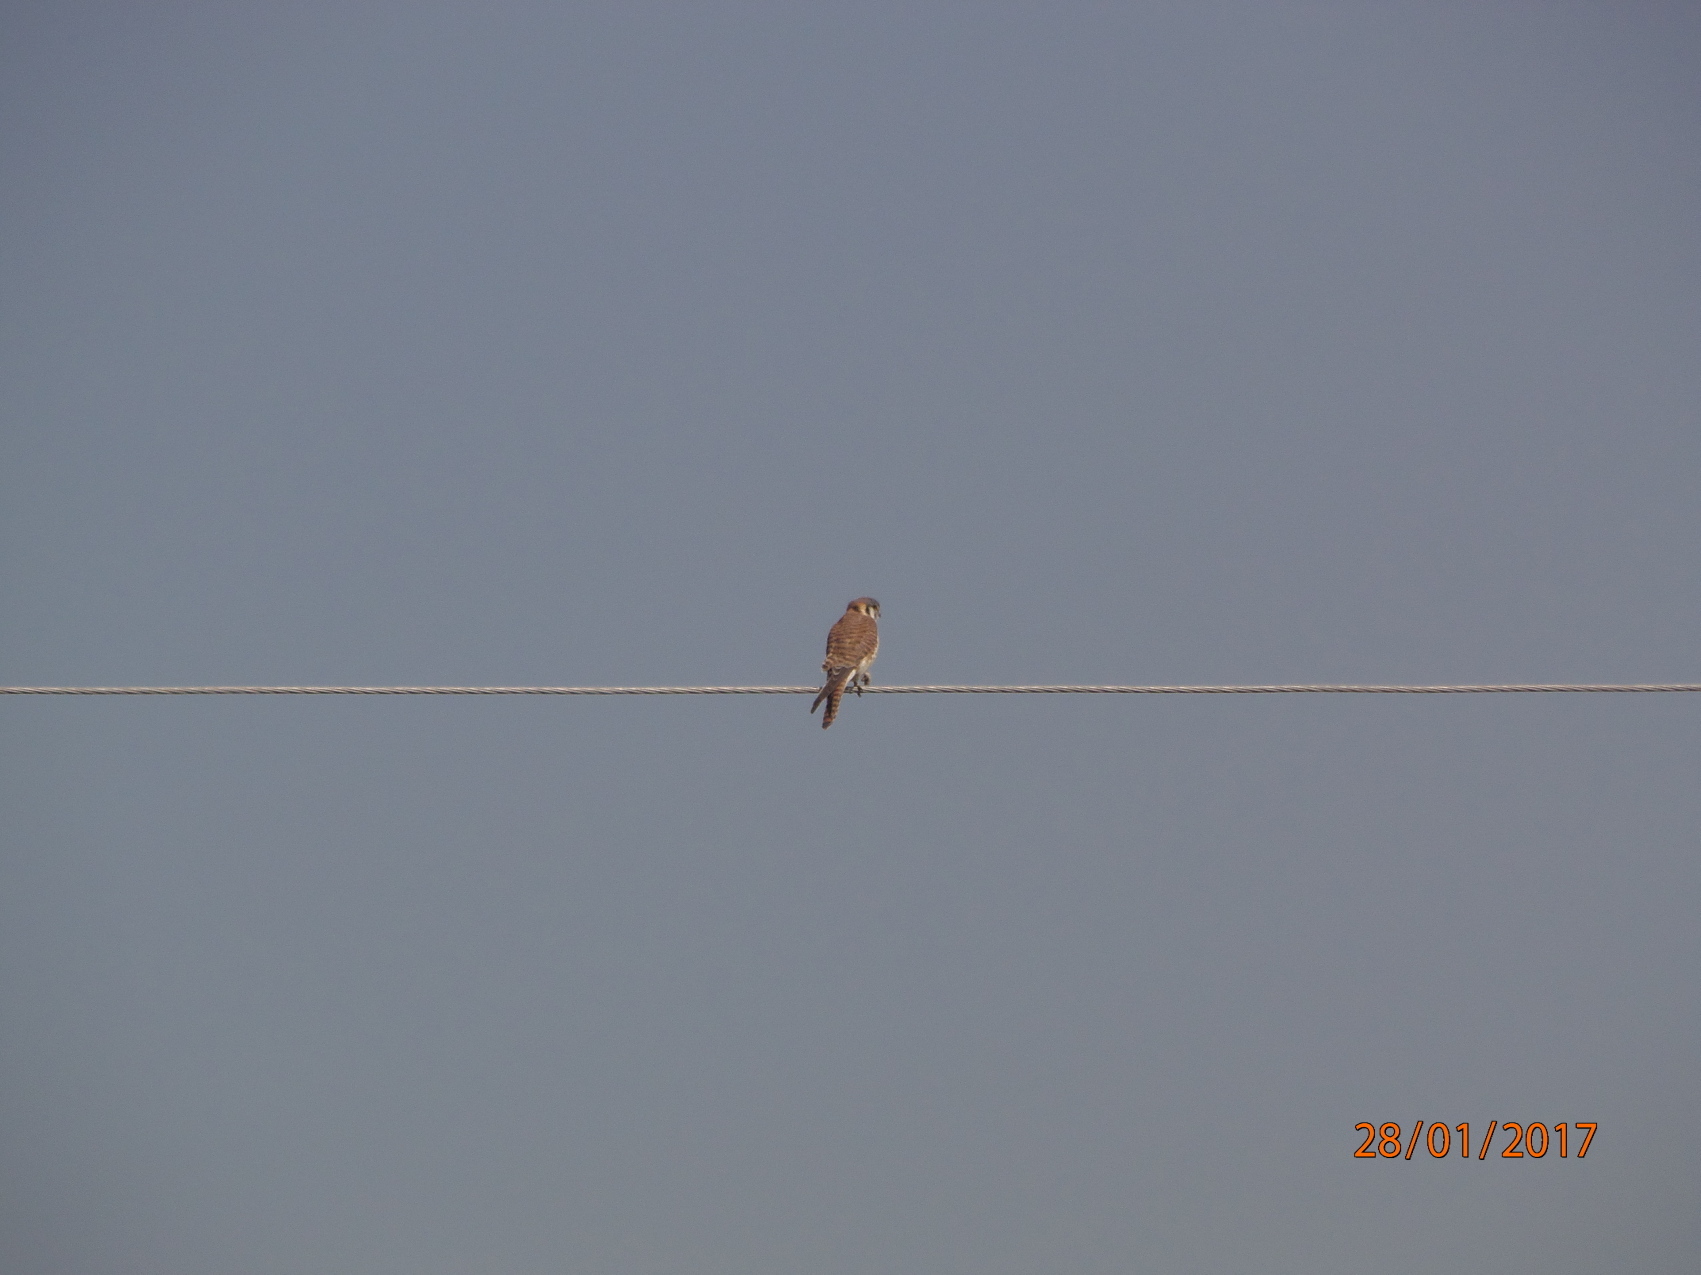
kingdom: Animalia
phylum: Chordata
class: Aves
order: Falconiformes
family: Falconidae
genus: Falco
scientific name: Falco sparverius
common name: American kestrel
